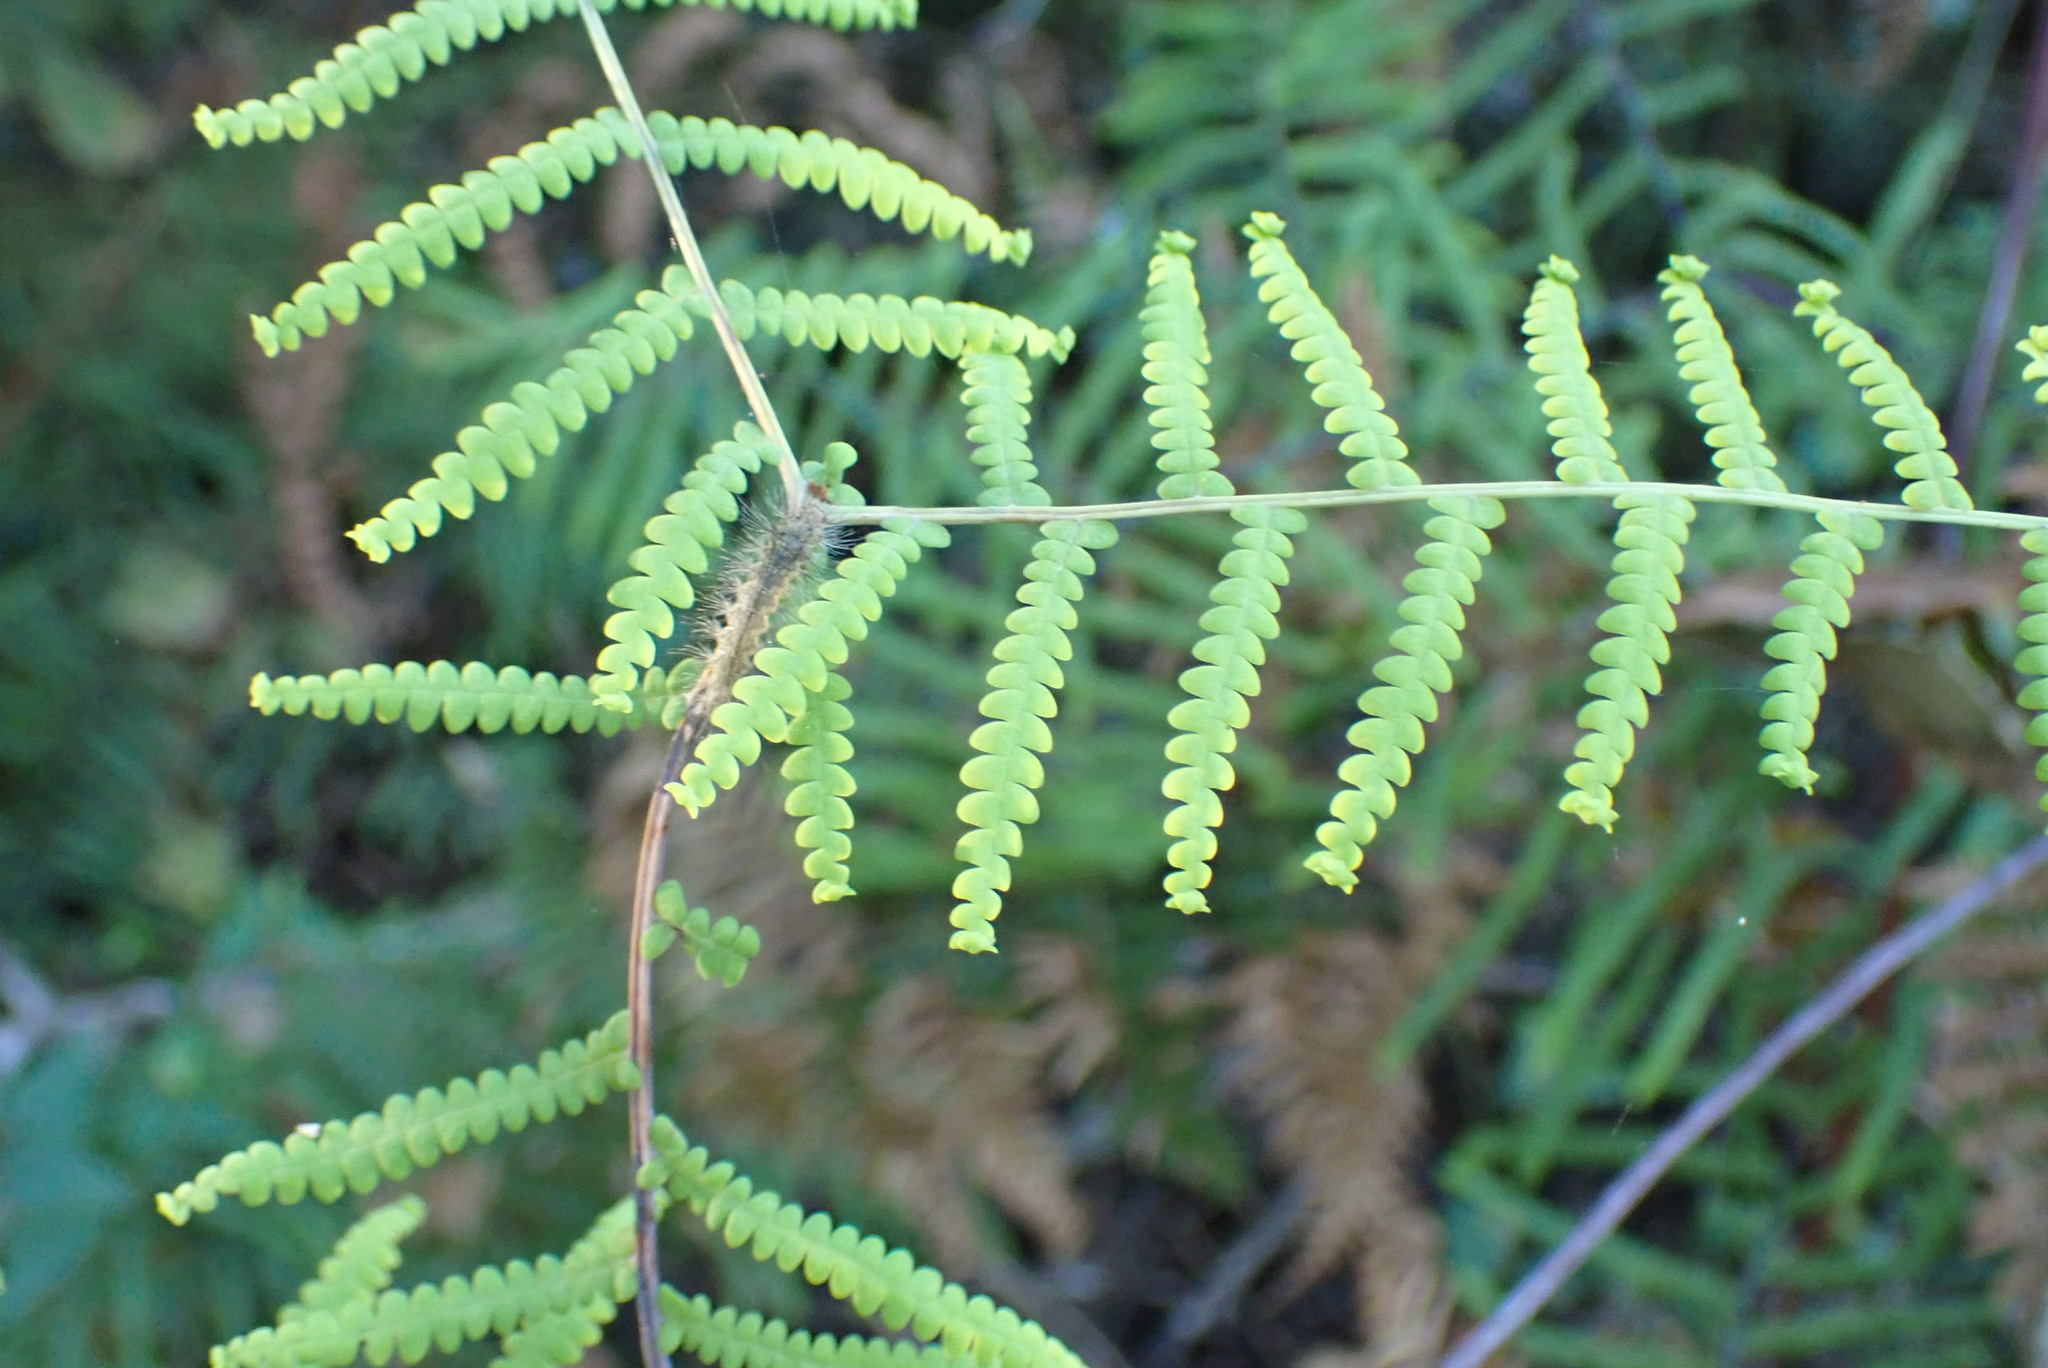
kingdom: Plantae
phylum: Tracheophyta
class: Polypodiopsida
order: Gleicheniales
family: Gleicheniaceae
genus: Gleichenia
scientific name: Gleichenia polypodioides
